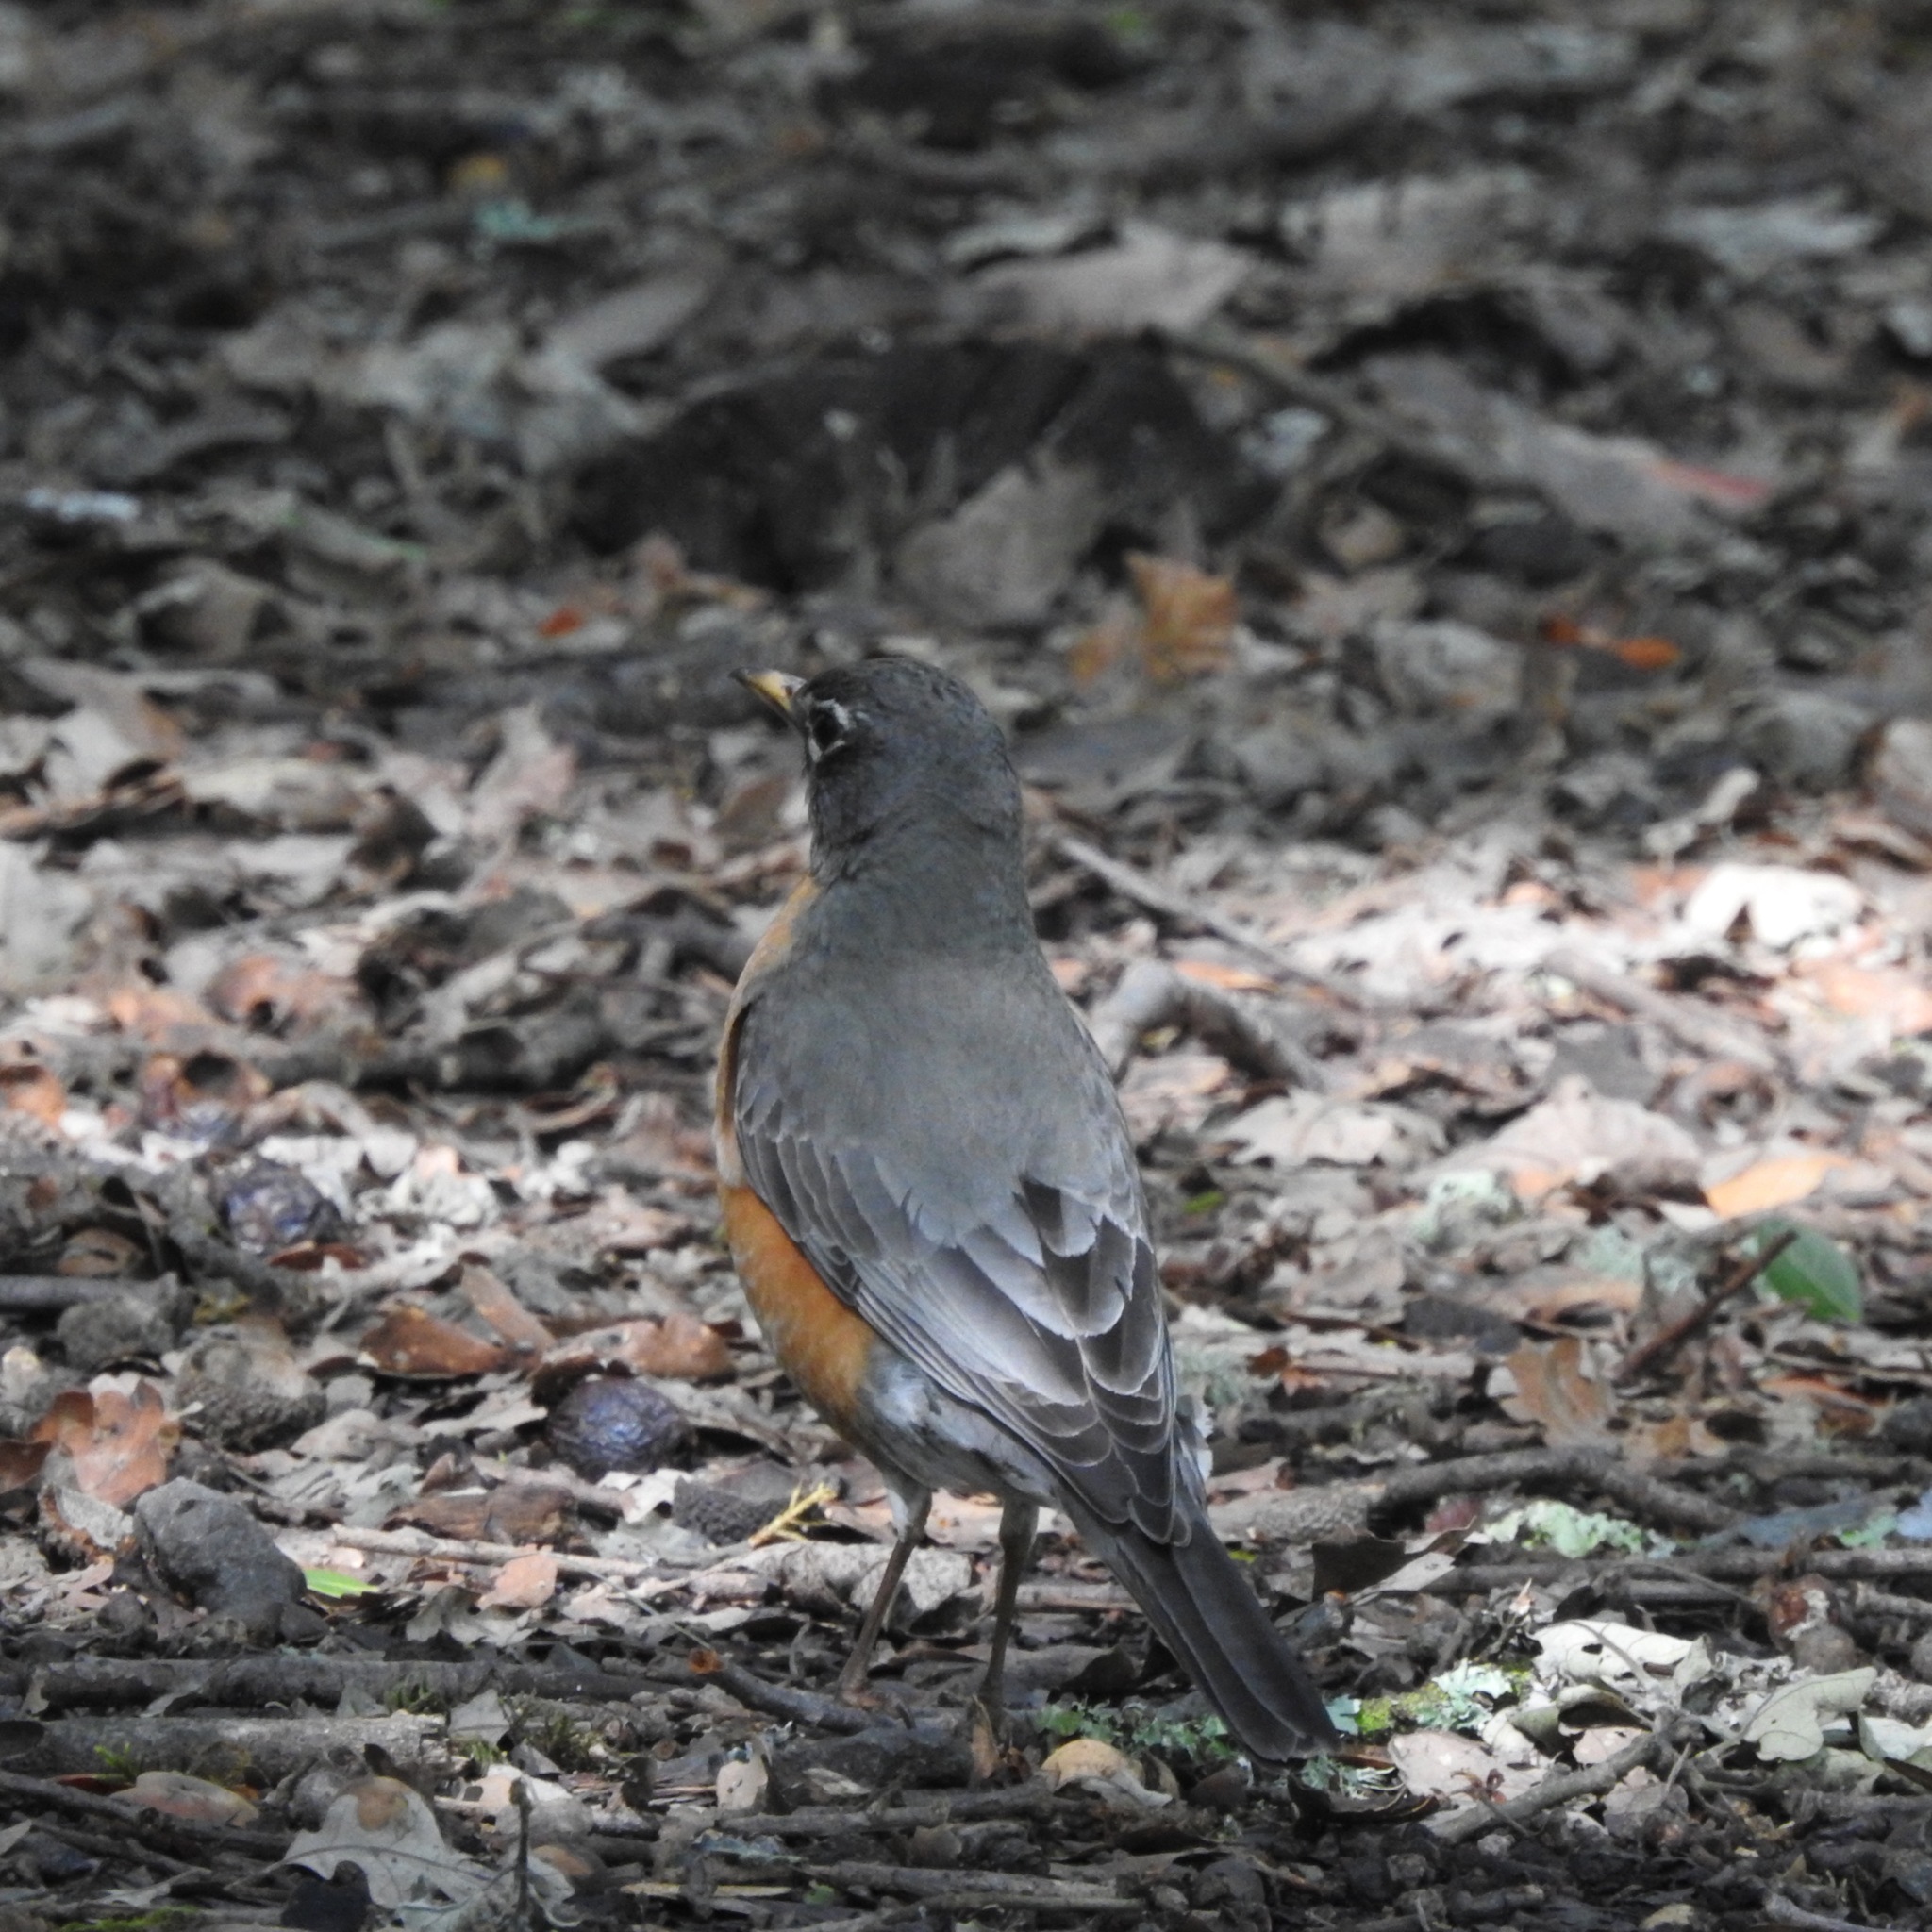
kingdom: Animalia
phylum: Chordata
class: Aves
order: Passeriformes
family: Turdidae
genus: Turdus
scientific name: Turdus migratorius
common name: American robin
